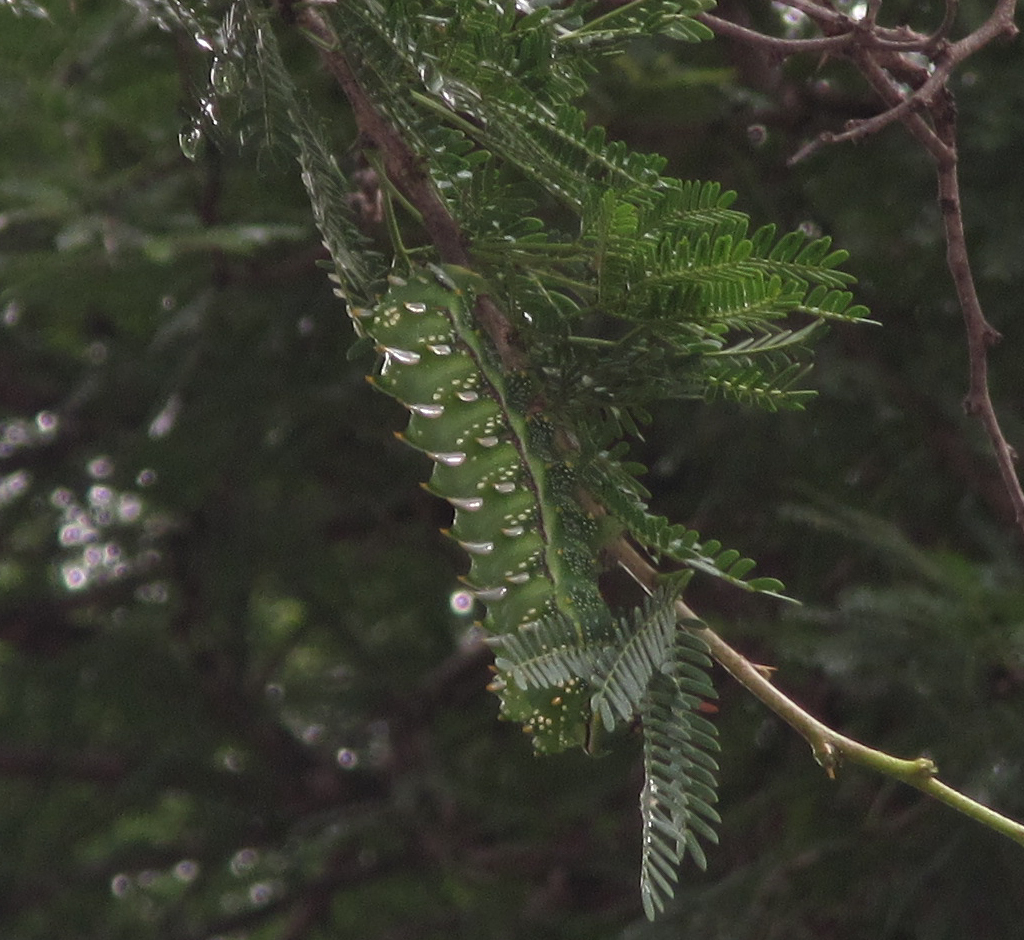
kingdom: Animalia
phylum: Arthropoda
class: Insecta
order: Lepidoptera
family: Saturniidae
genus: Gynanisa
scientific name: Gynanisa maja
